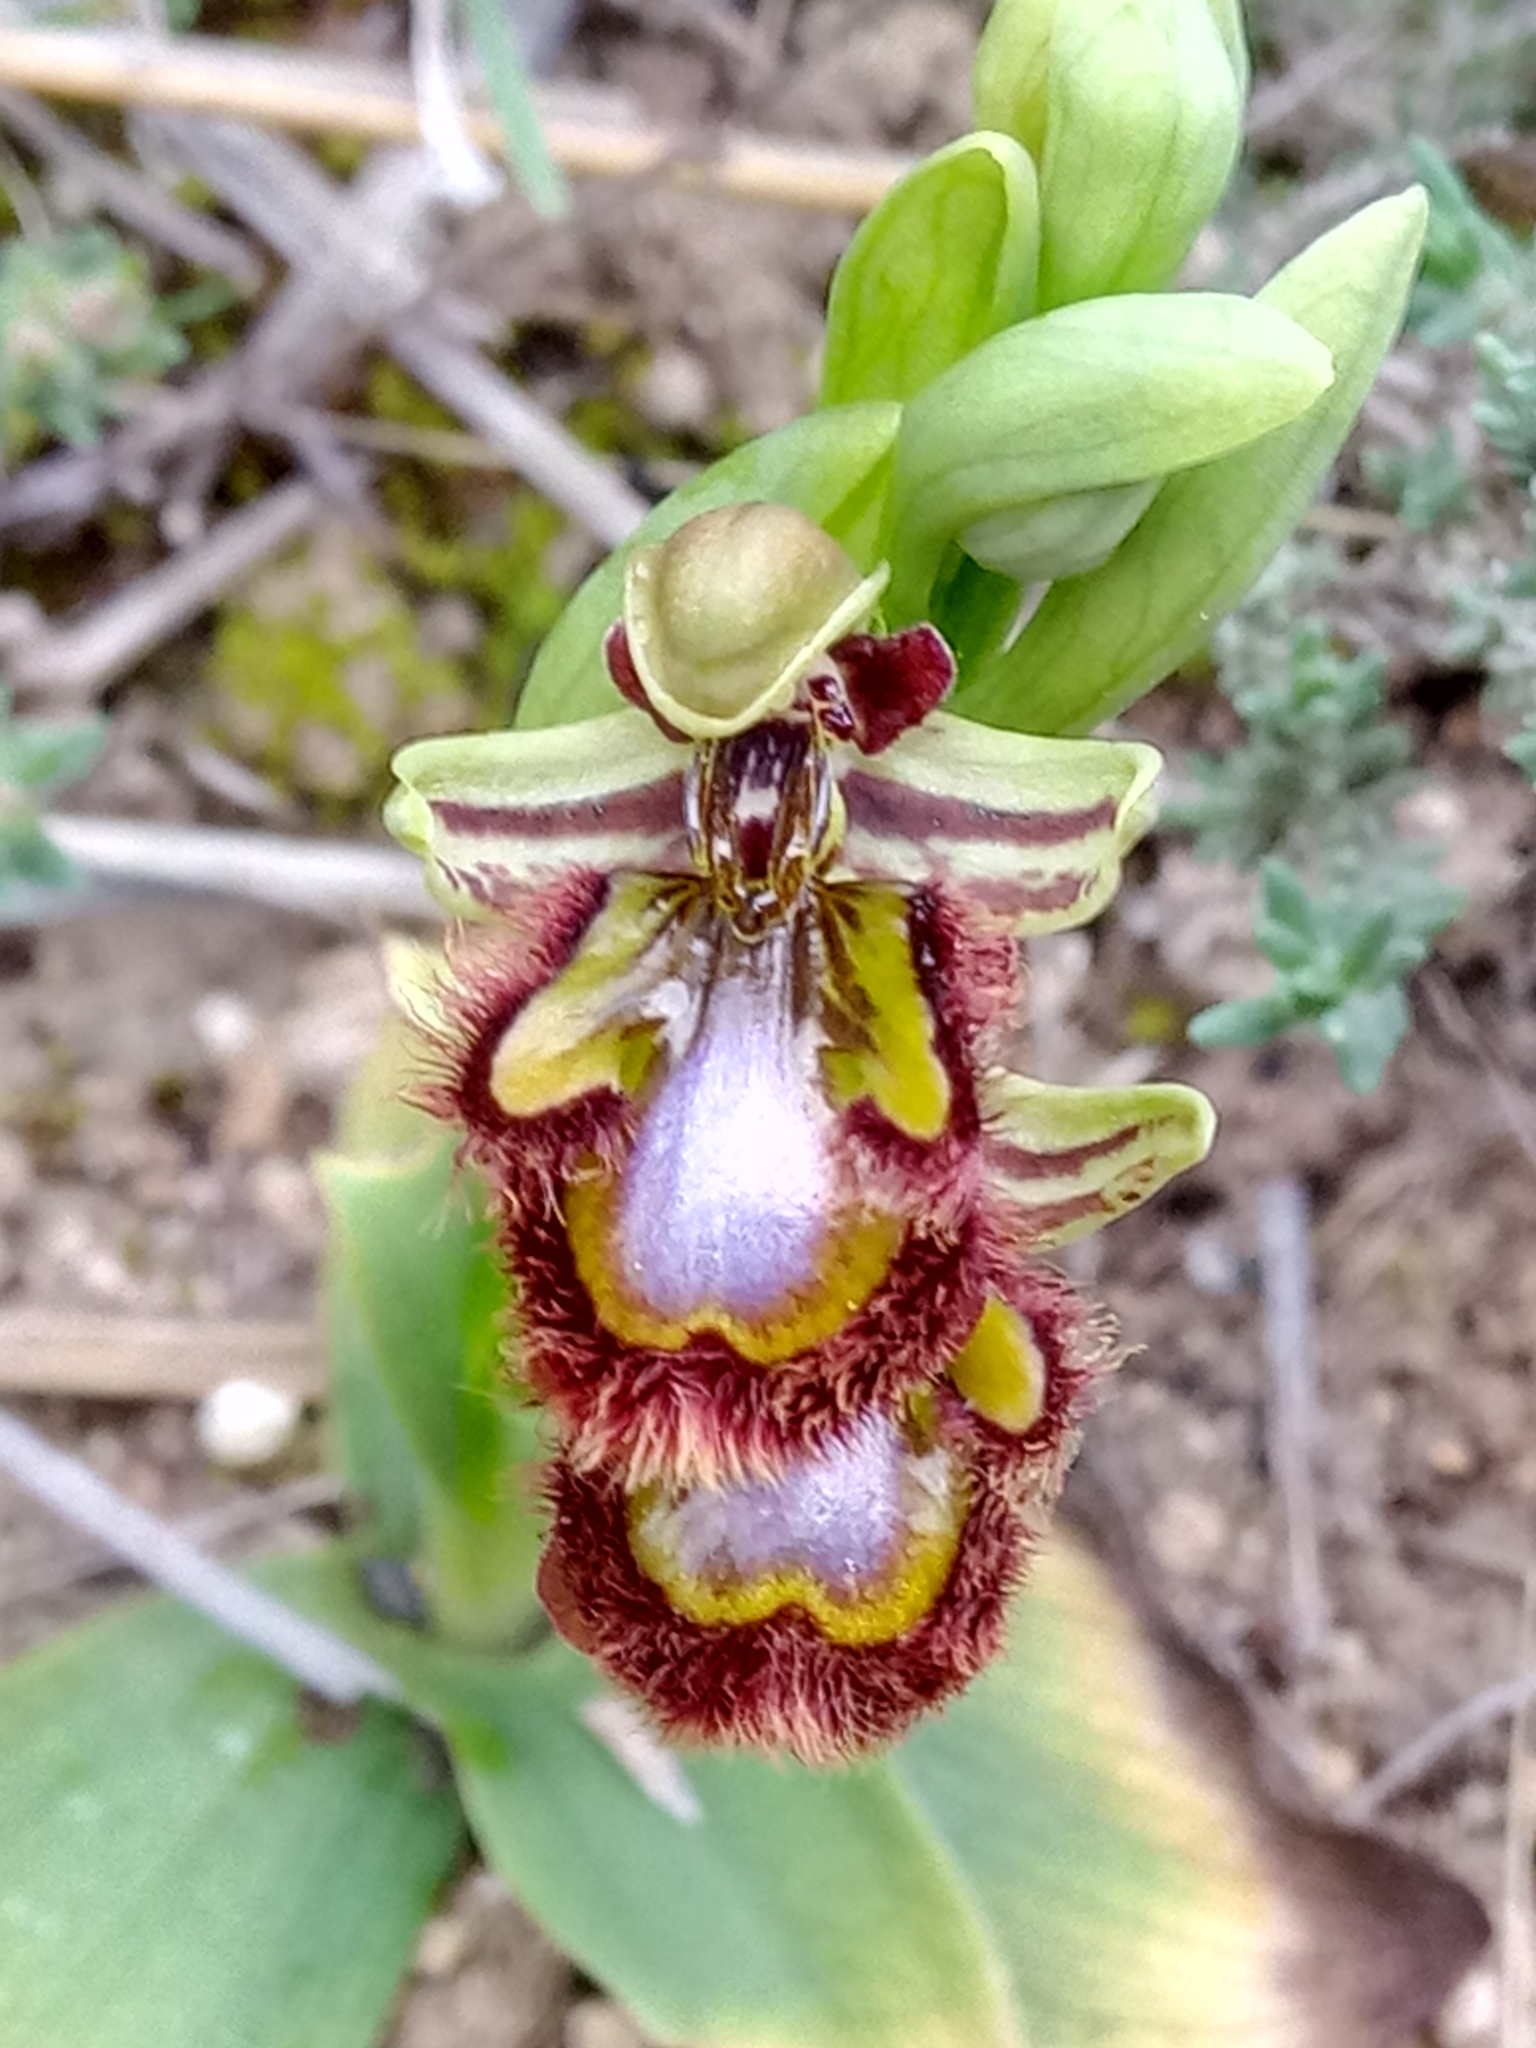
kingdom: Plantae
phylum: Tracheophyta
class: Liliopsida
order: Asparagales
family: Orchidaceae
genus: Ophrys
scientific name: Ophrys speculum
